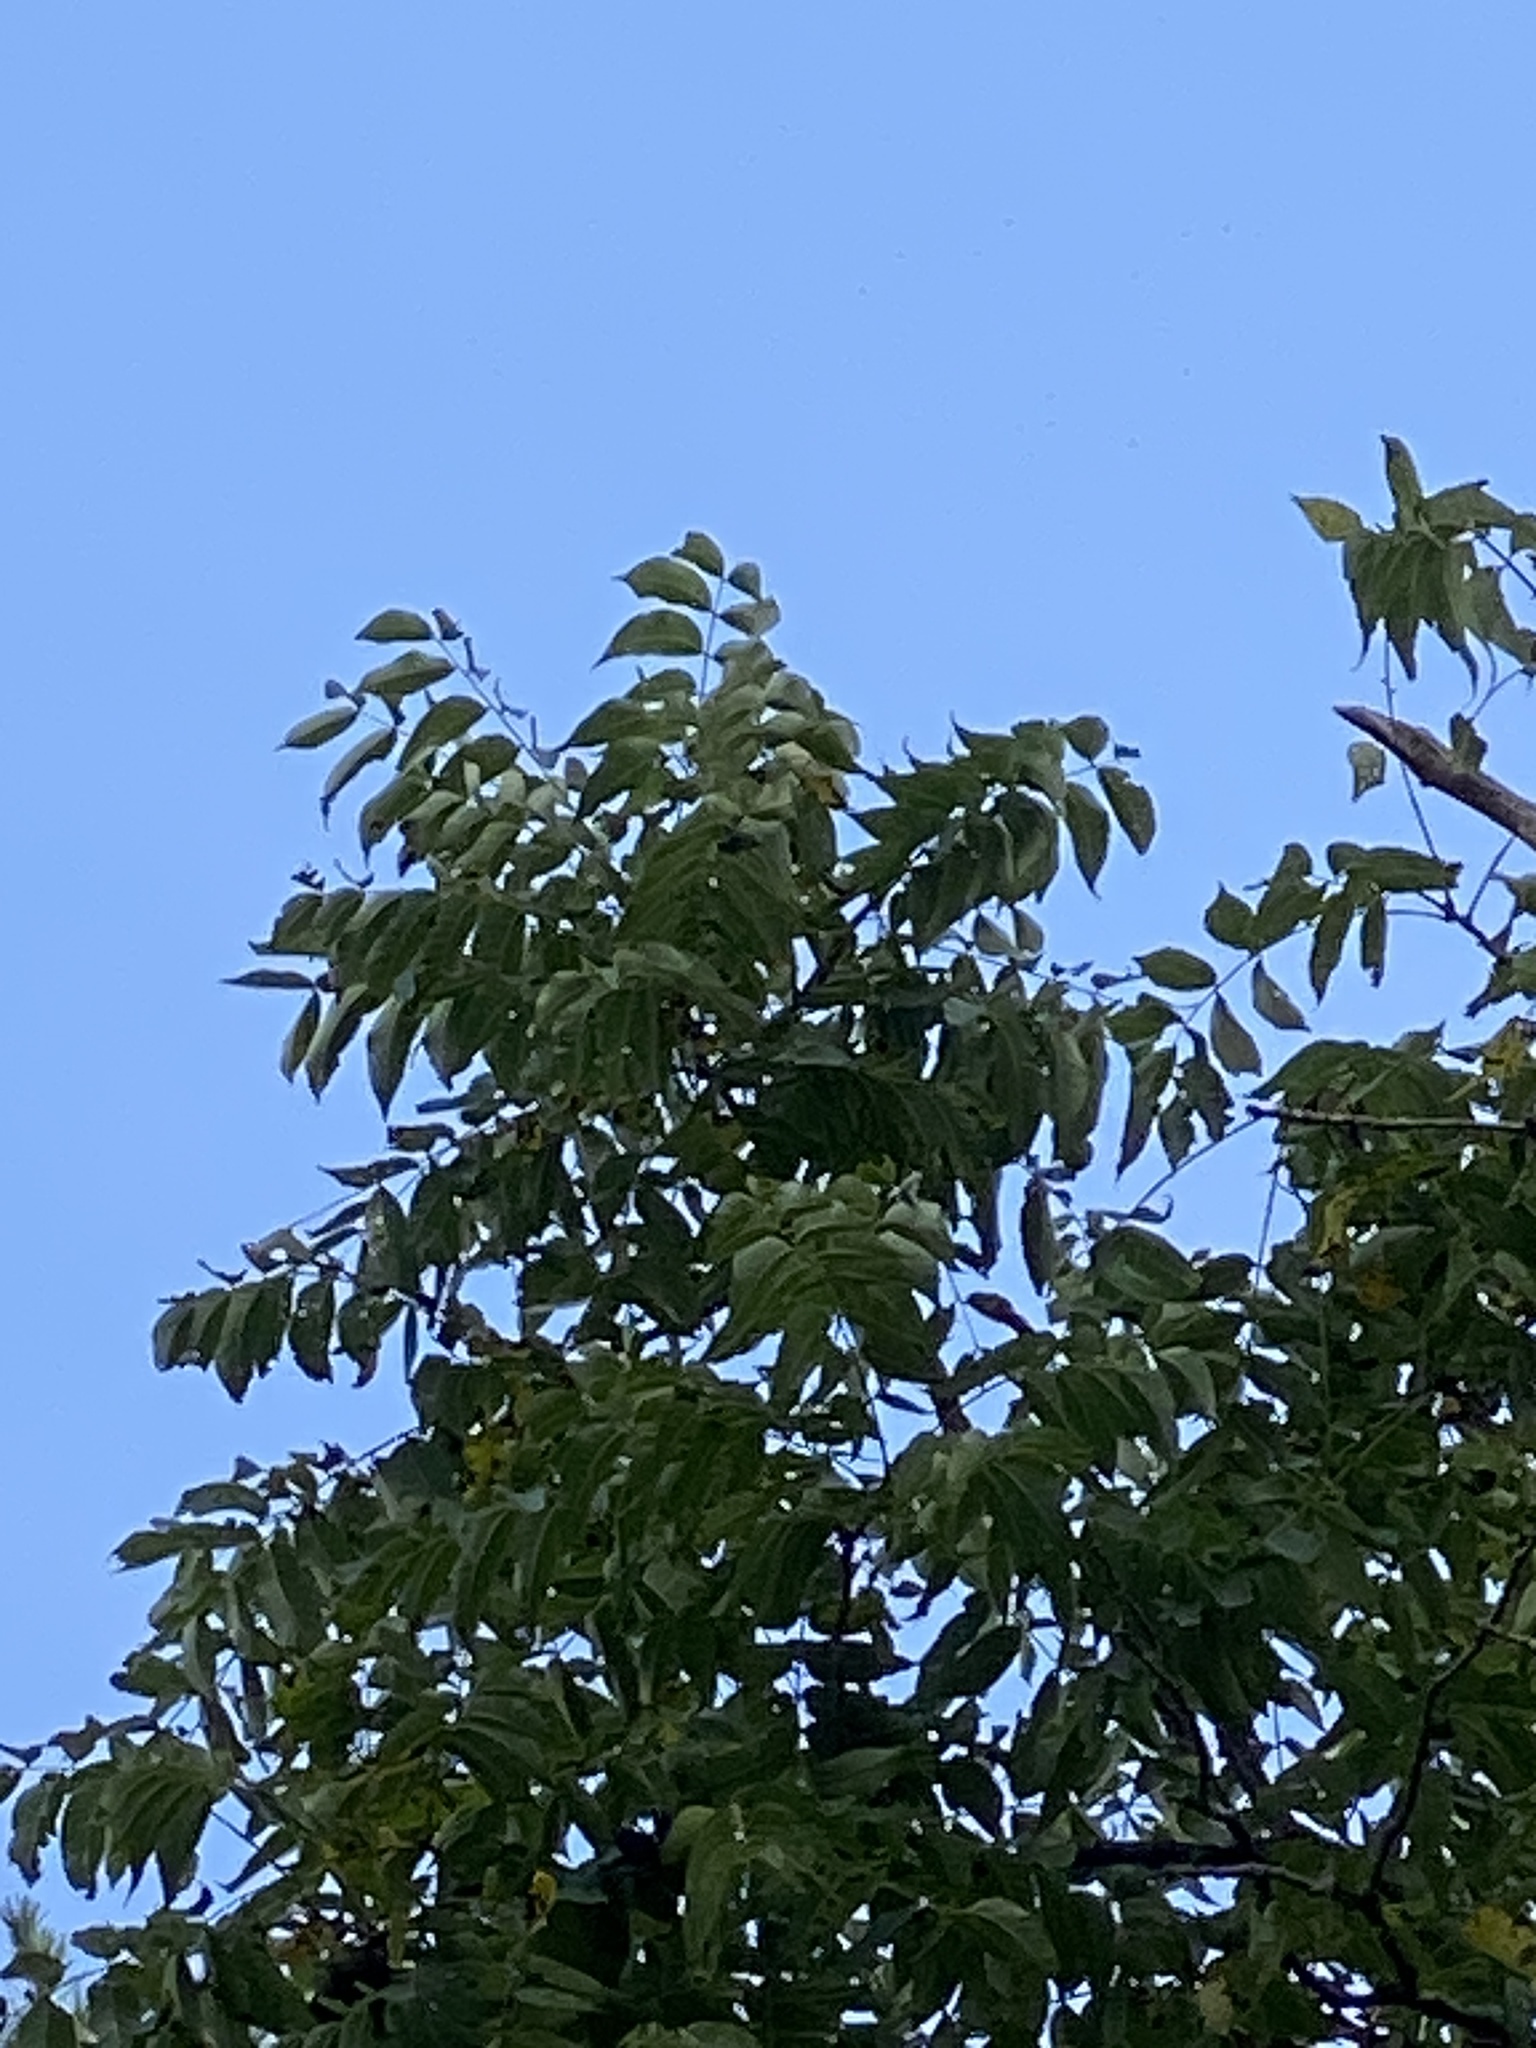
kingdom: Plantae
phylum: Tracheophyta
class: Magnoliopsida
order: Fagales
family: Juglandaceae
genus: Juglans
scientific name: Juglans nigra
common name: Black walnut
